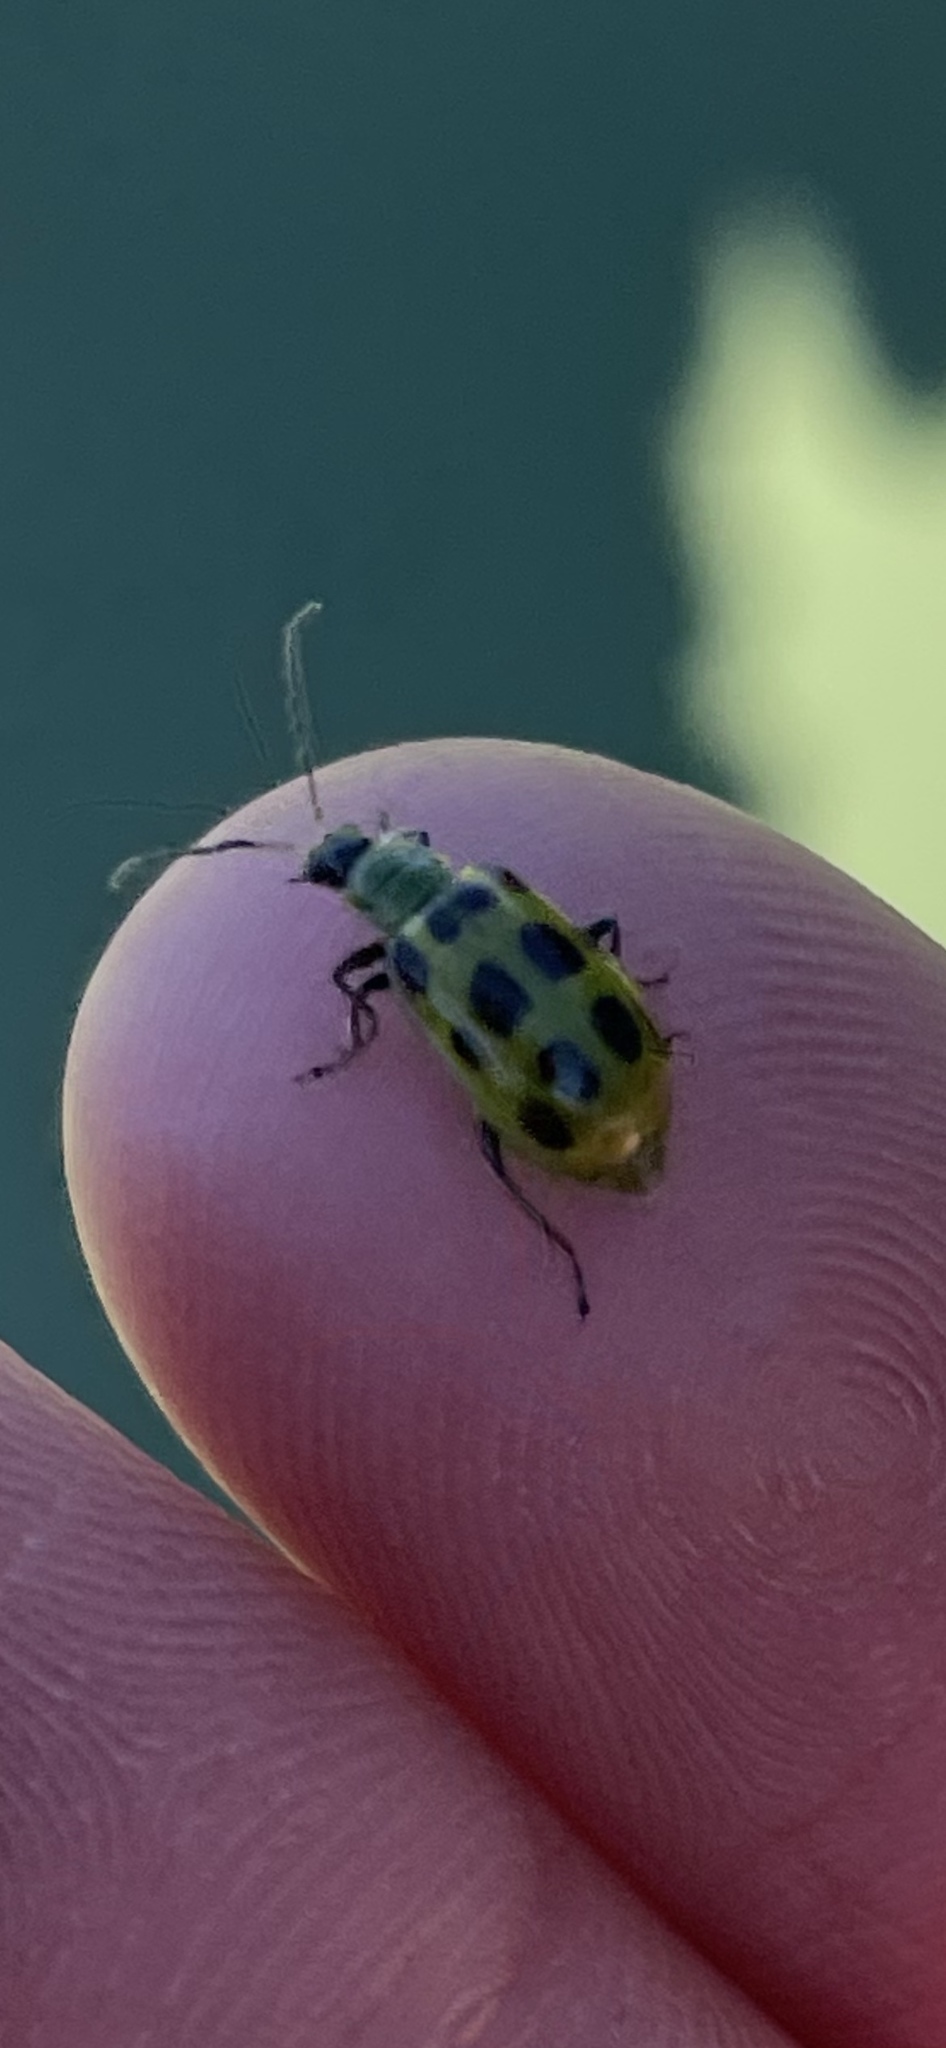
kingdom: Animalia
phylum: Arthropoda
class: Insecta
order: Coleoptera
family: Chrysomelidae
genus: Diabrotica
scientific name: Diabrotica undecimpunctata
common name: Spotted cucumber beetle
